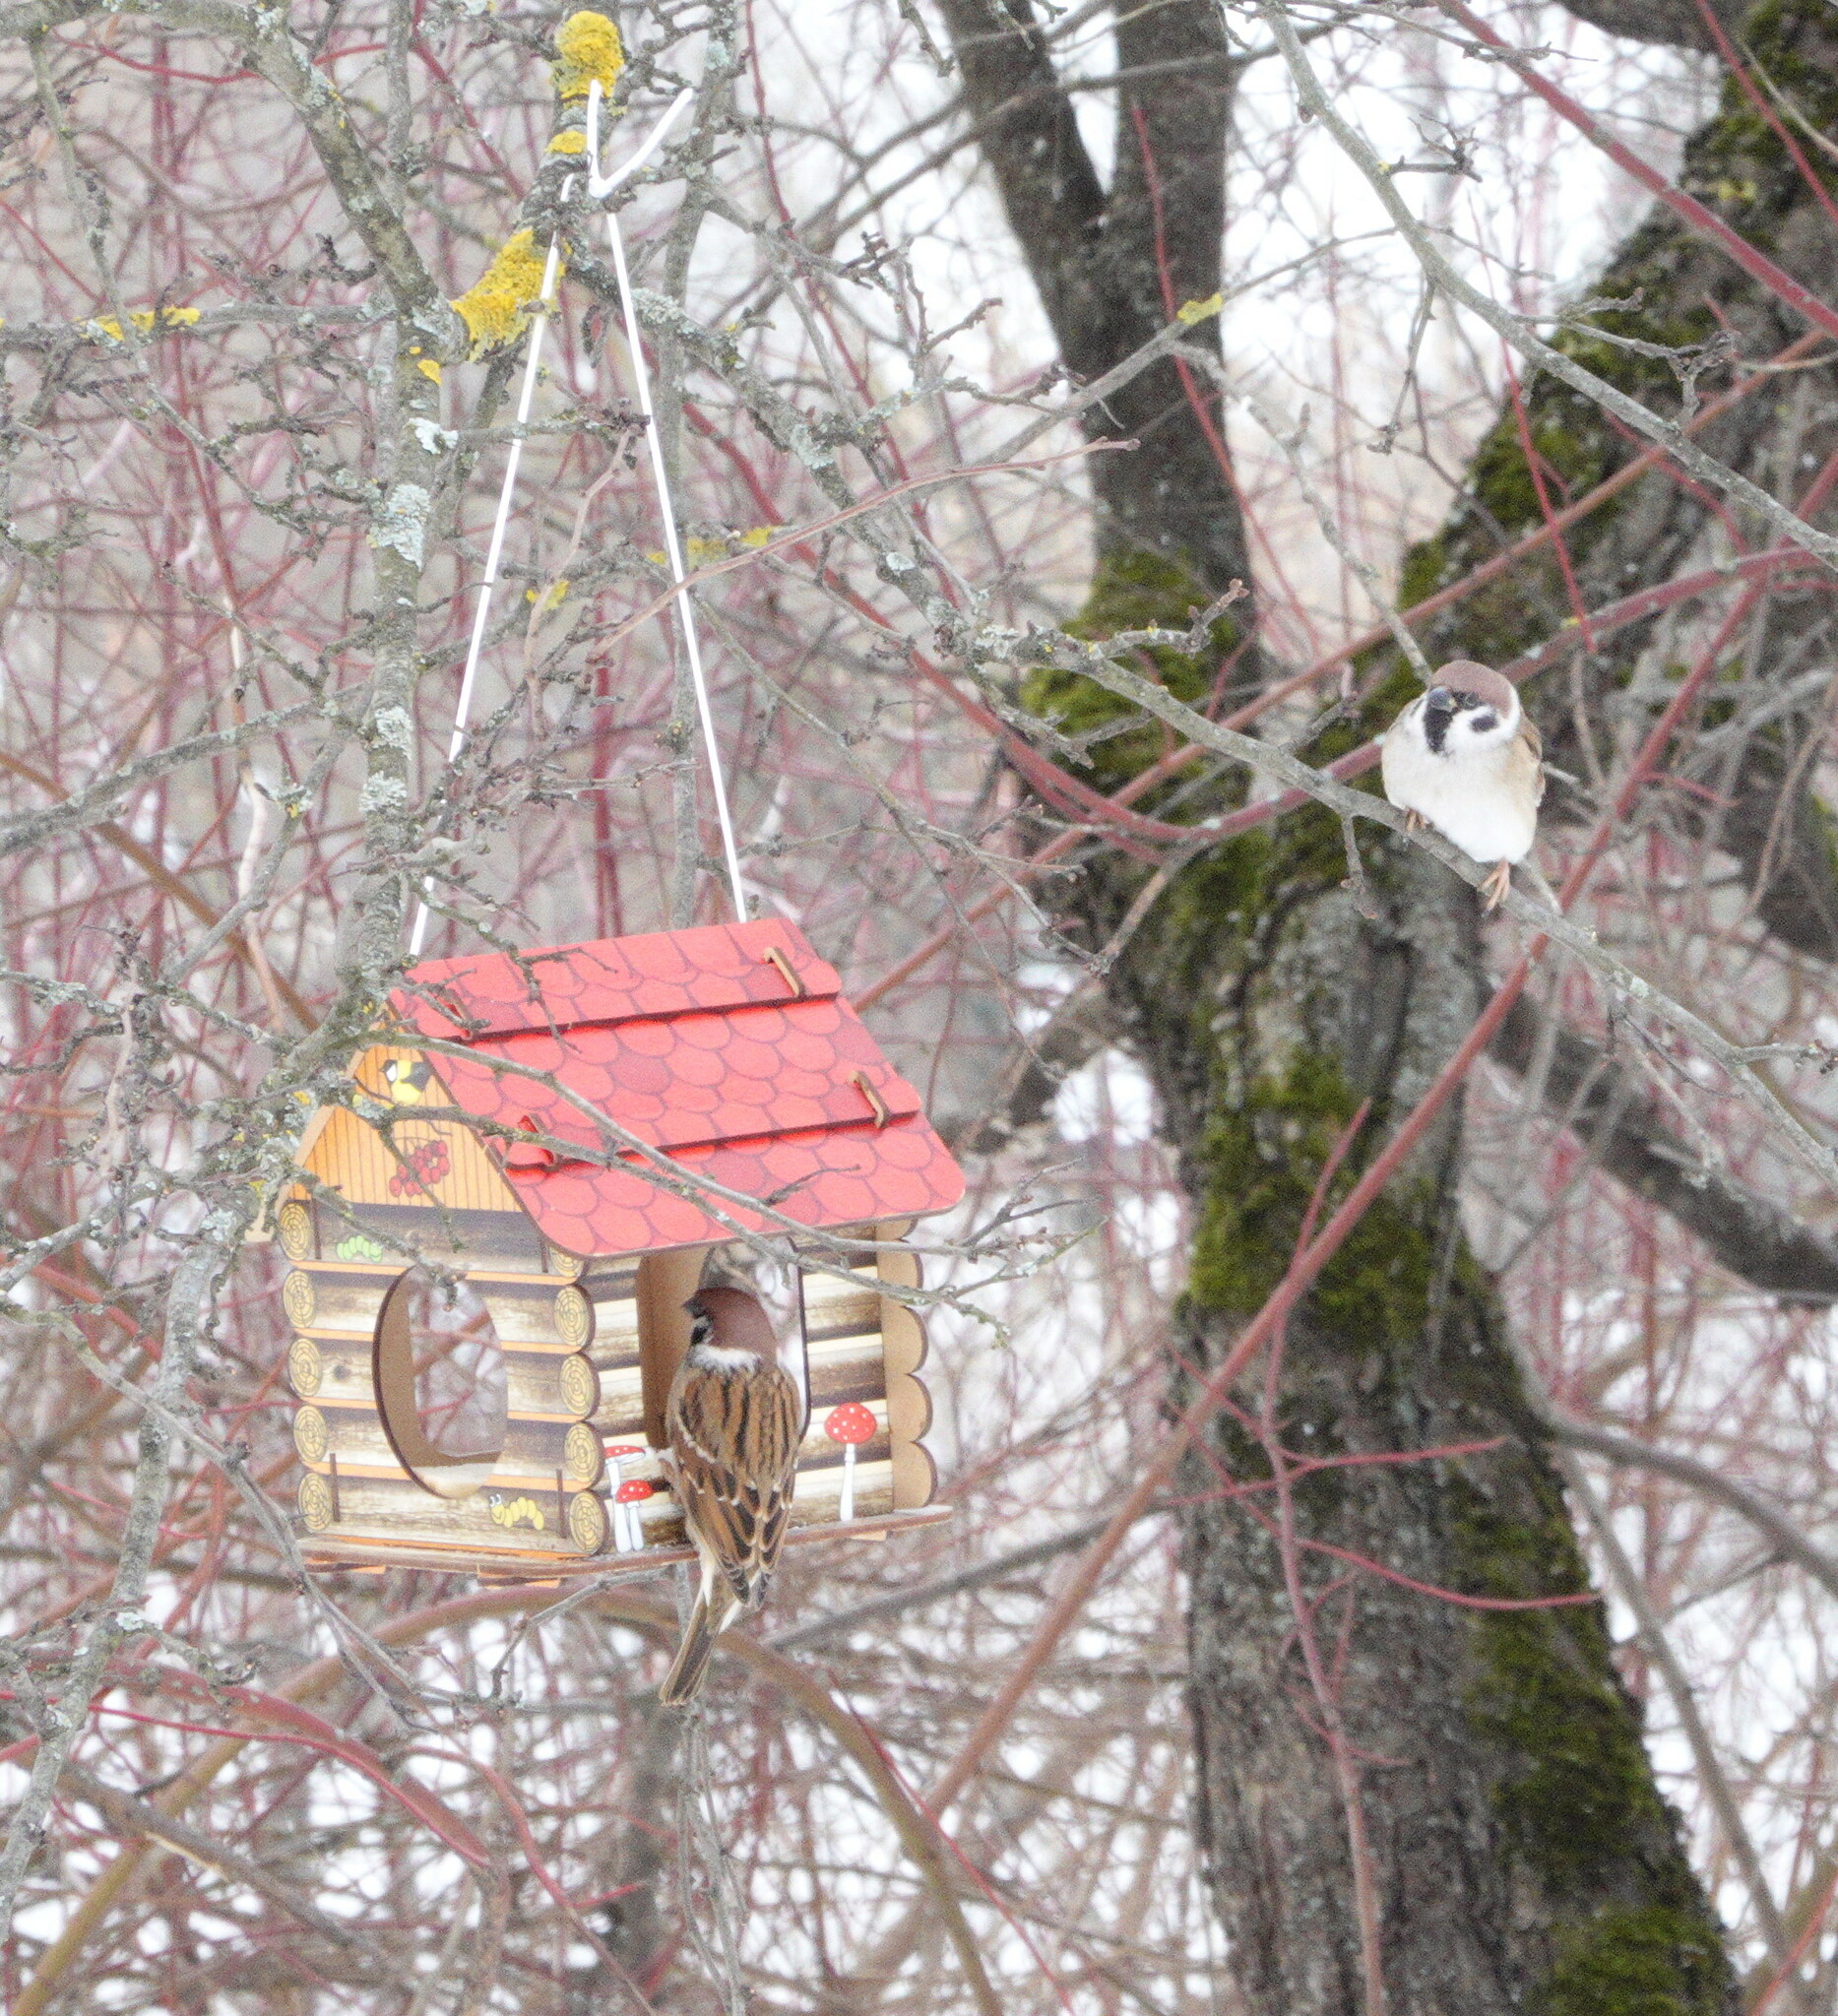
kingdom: Animalia
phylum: Chordata
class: Aves
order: Passeriformes
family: Passeridae
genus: Passer
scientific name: Passer montanus
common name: Eurasian tree sparrow
